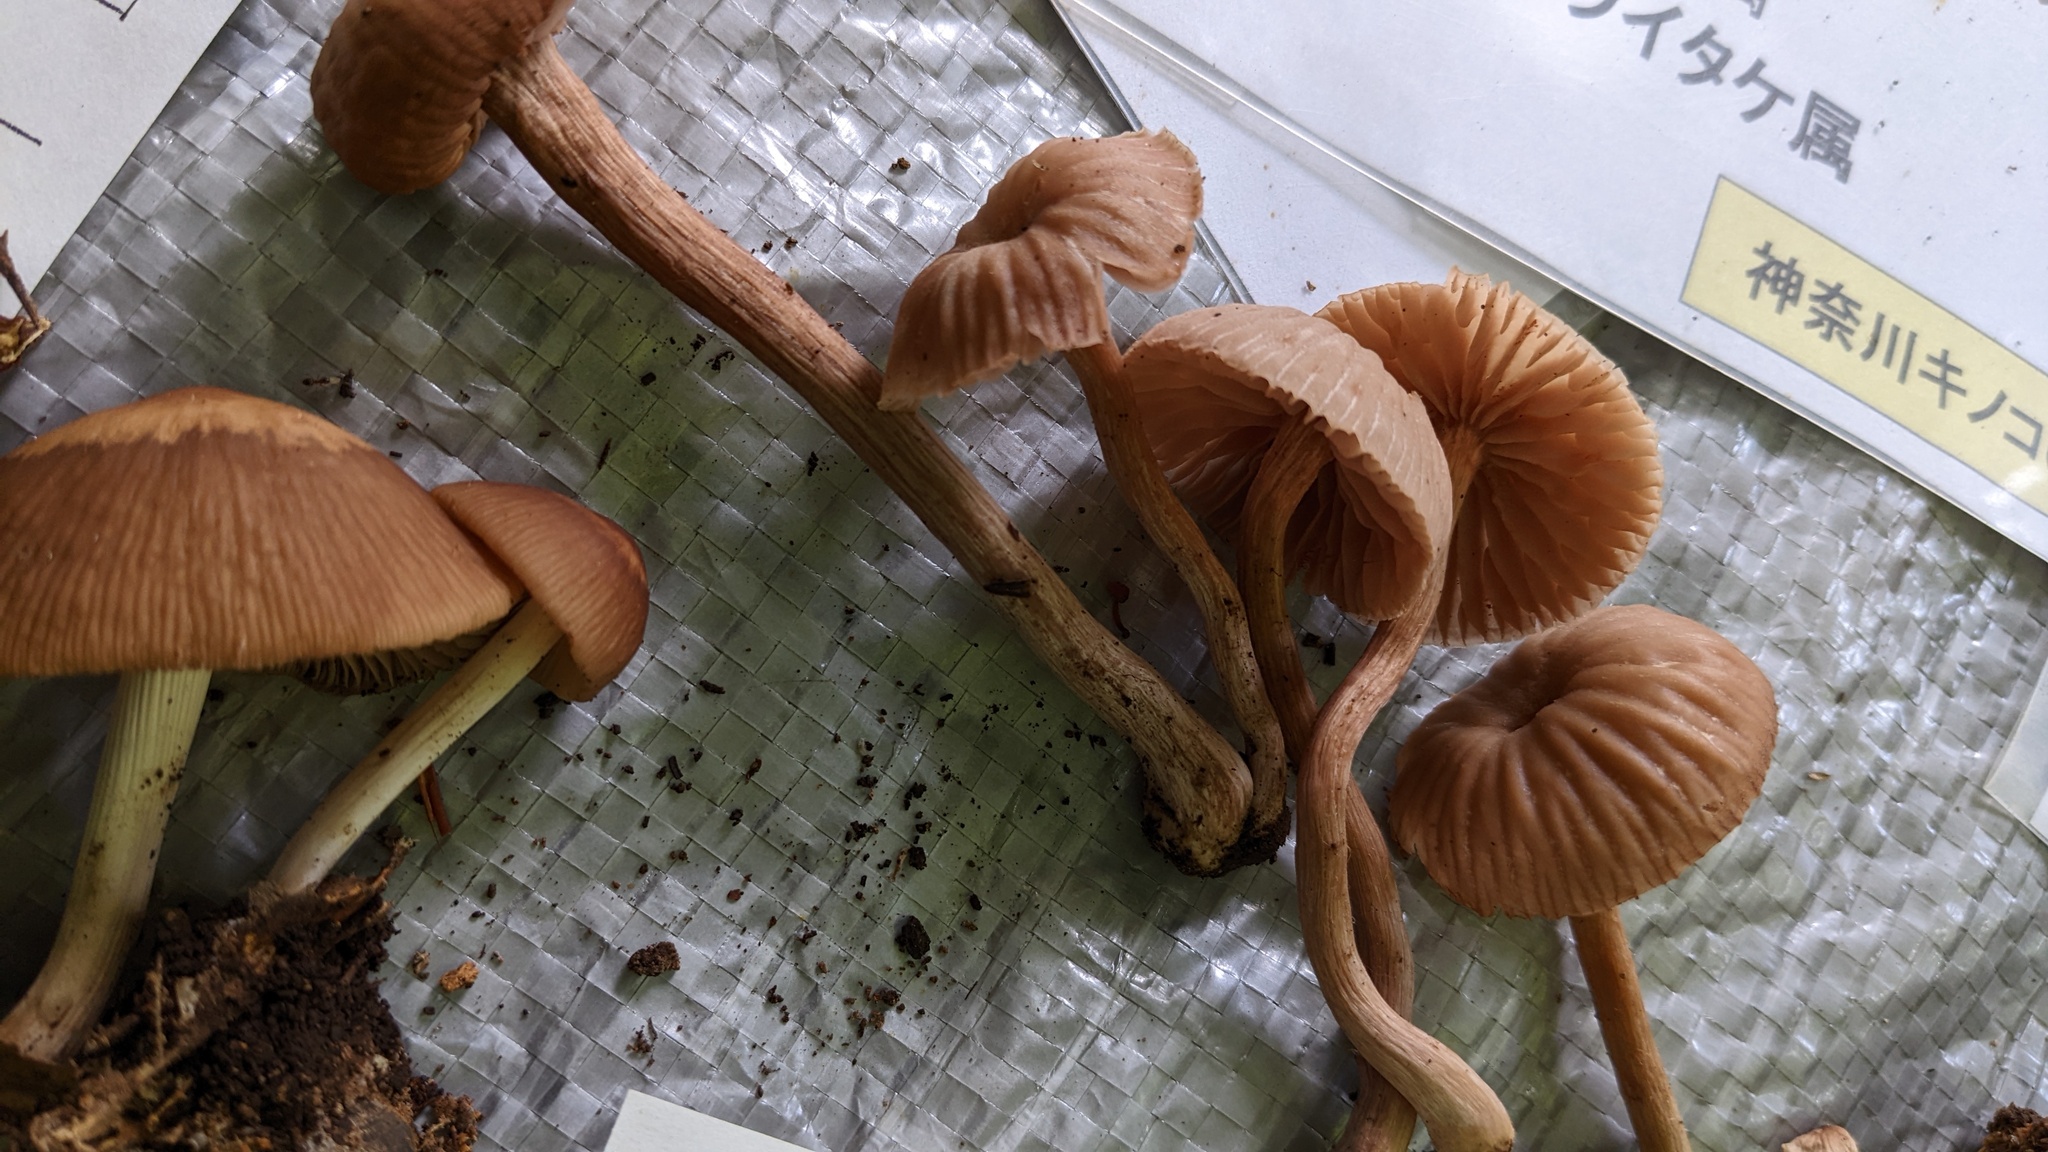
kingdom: Fungi
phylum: Basidiomycota
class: Agaricomycetes
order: Agaricales
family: Hydnangiaceae
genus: Laccaria
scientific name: Laccaria vinaceoavellanea
